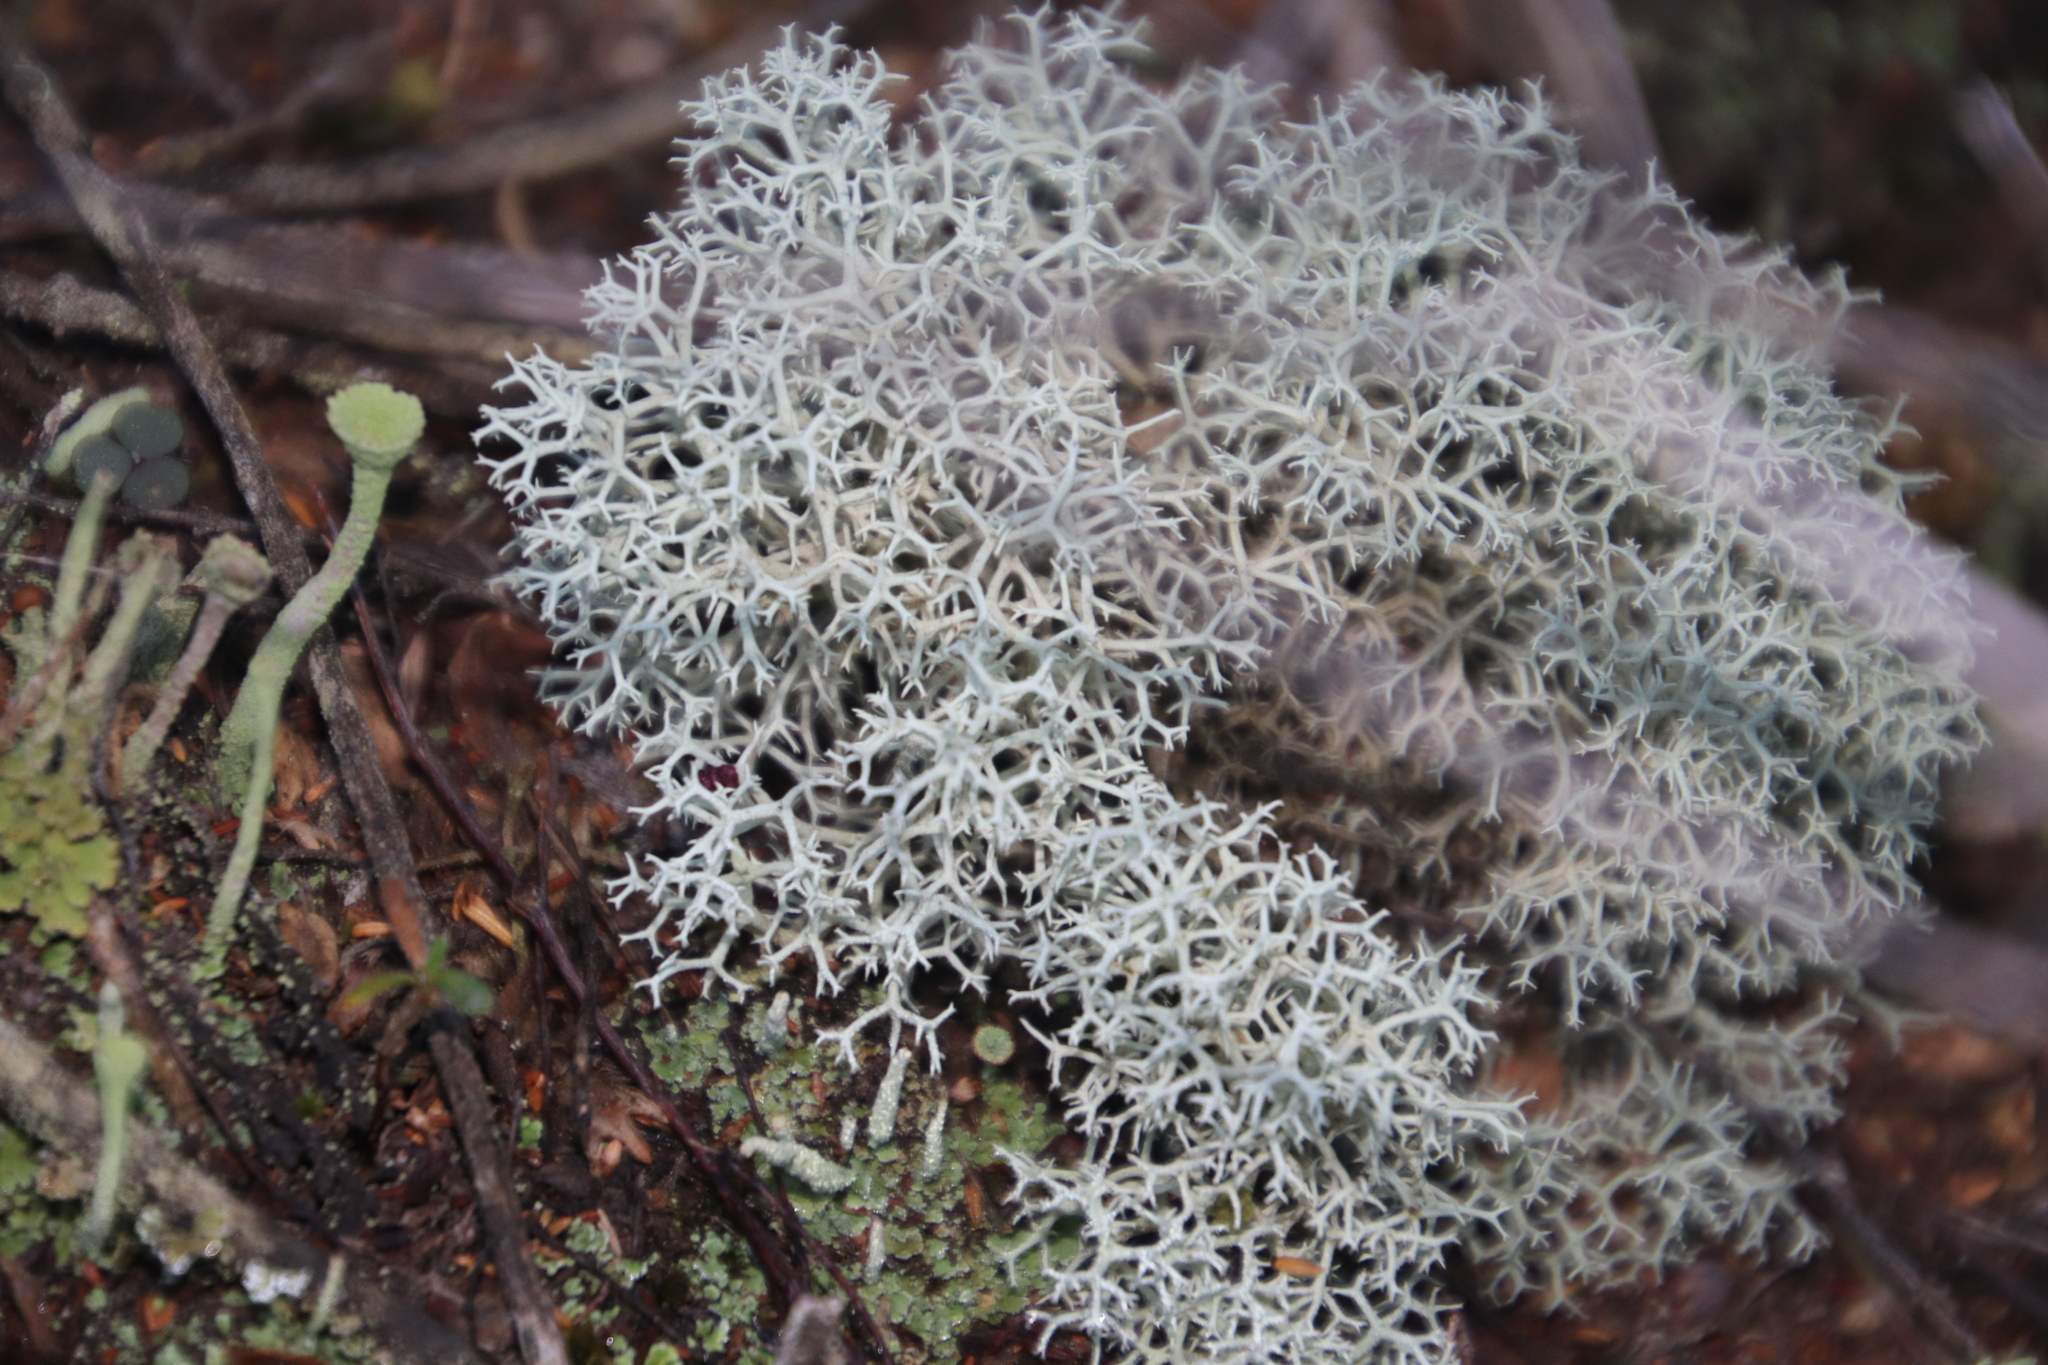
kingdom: Fungi
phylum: Ascomycota
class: Lecanoromycetes
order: Lecanorales
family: Cladoniaceae
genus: Cladonia
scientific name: Cladonia confusa
